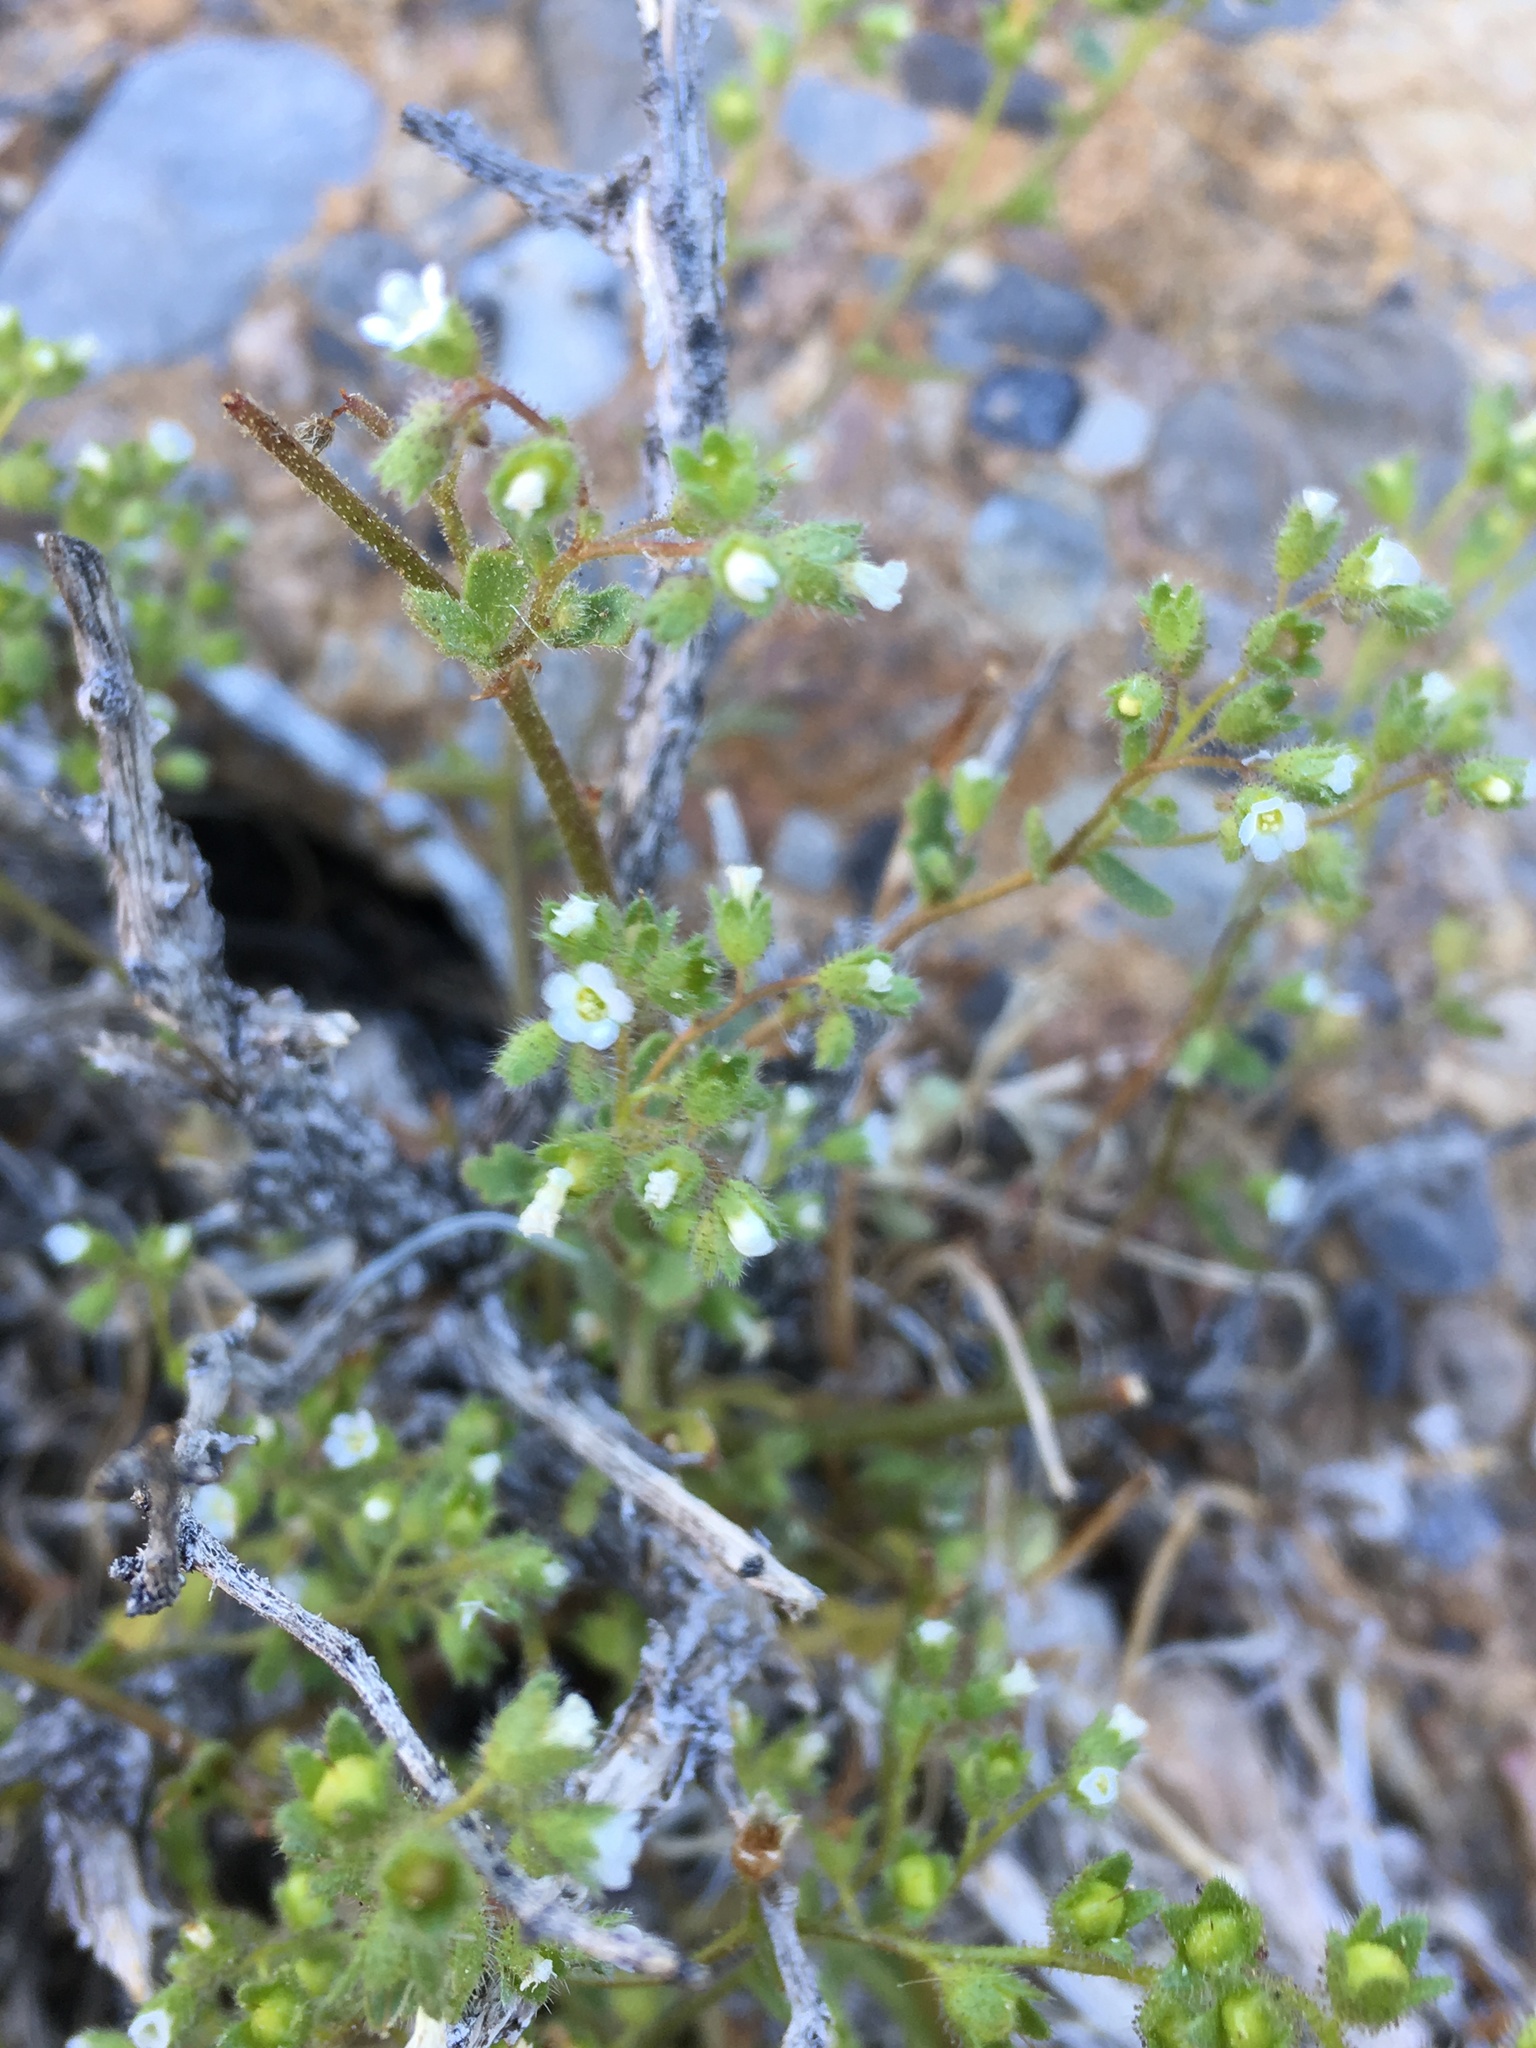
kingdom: Plantae
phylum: Tracheophyta
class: Magnoliopsida
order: Boraginales
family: Hydrophyllaceae
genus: Eucrypta
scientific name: Eucrypta micrantha
